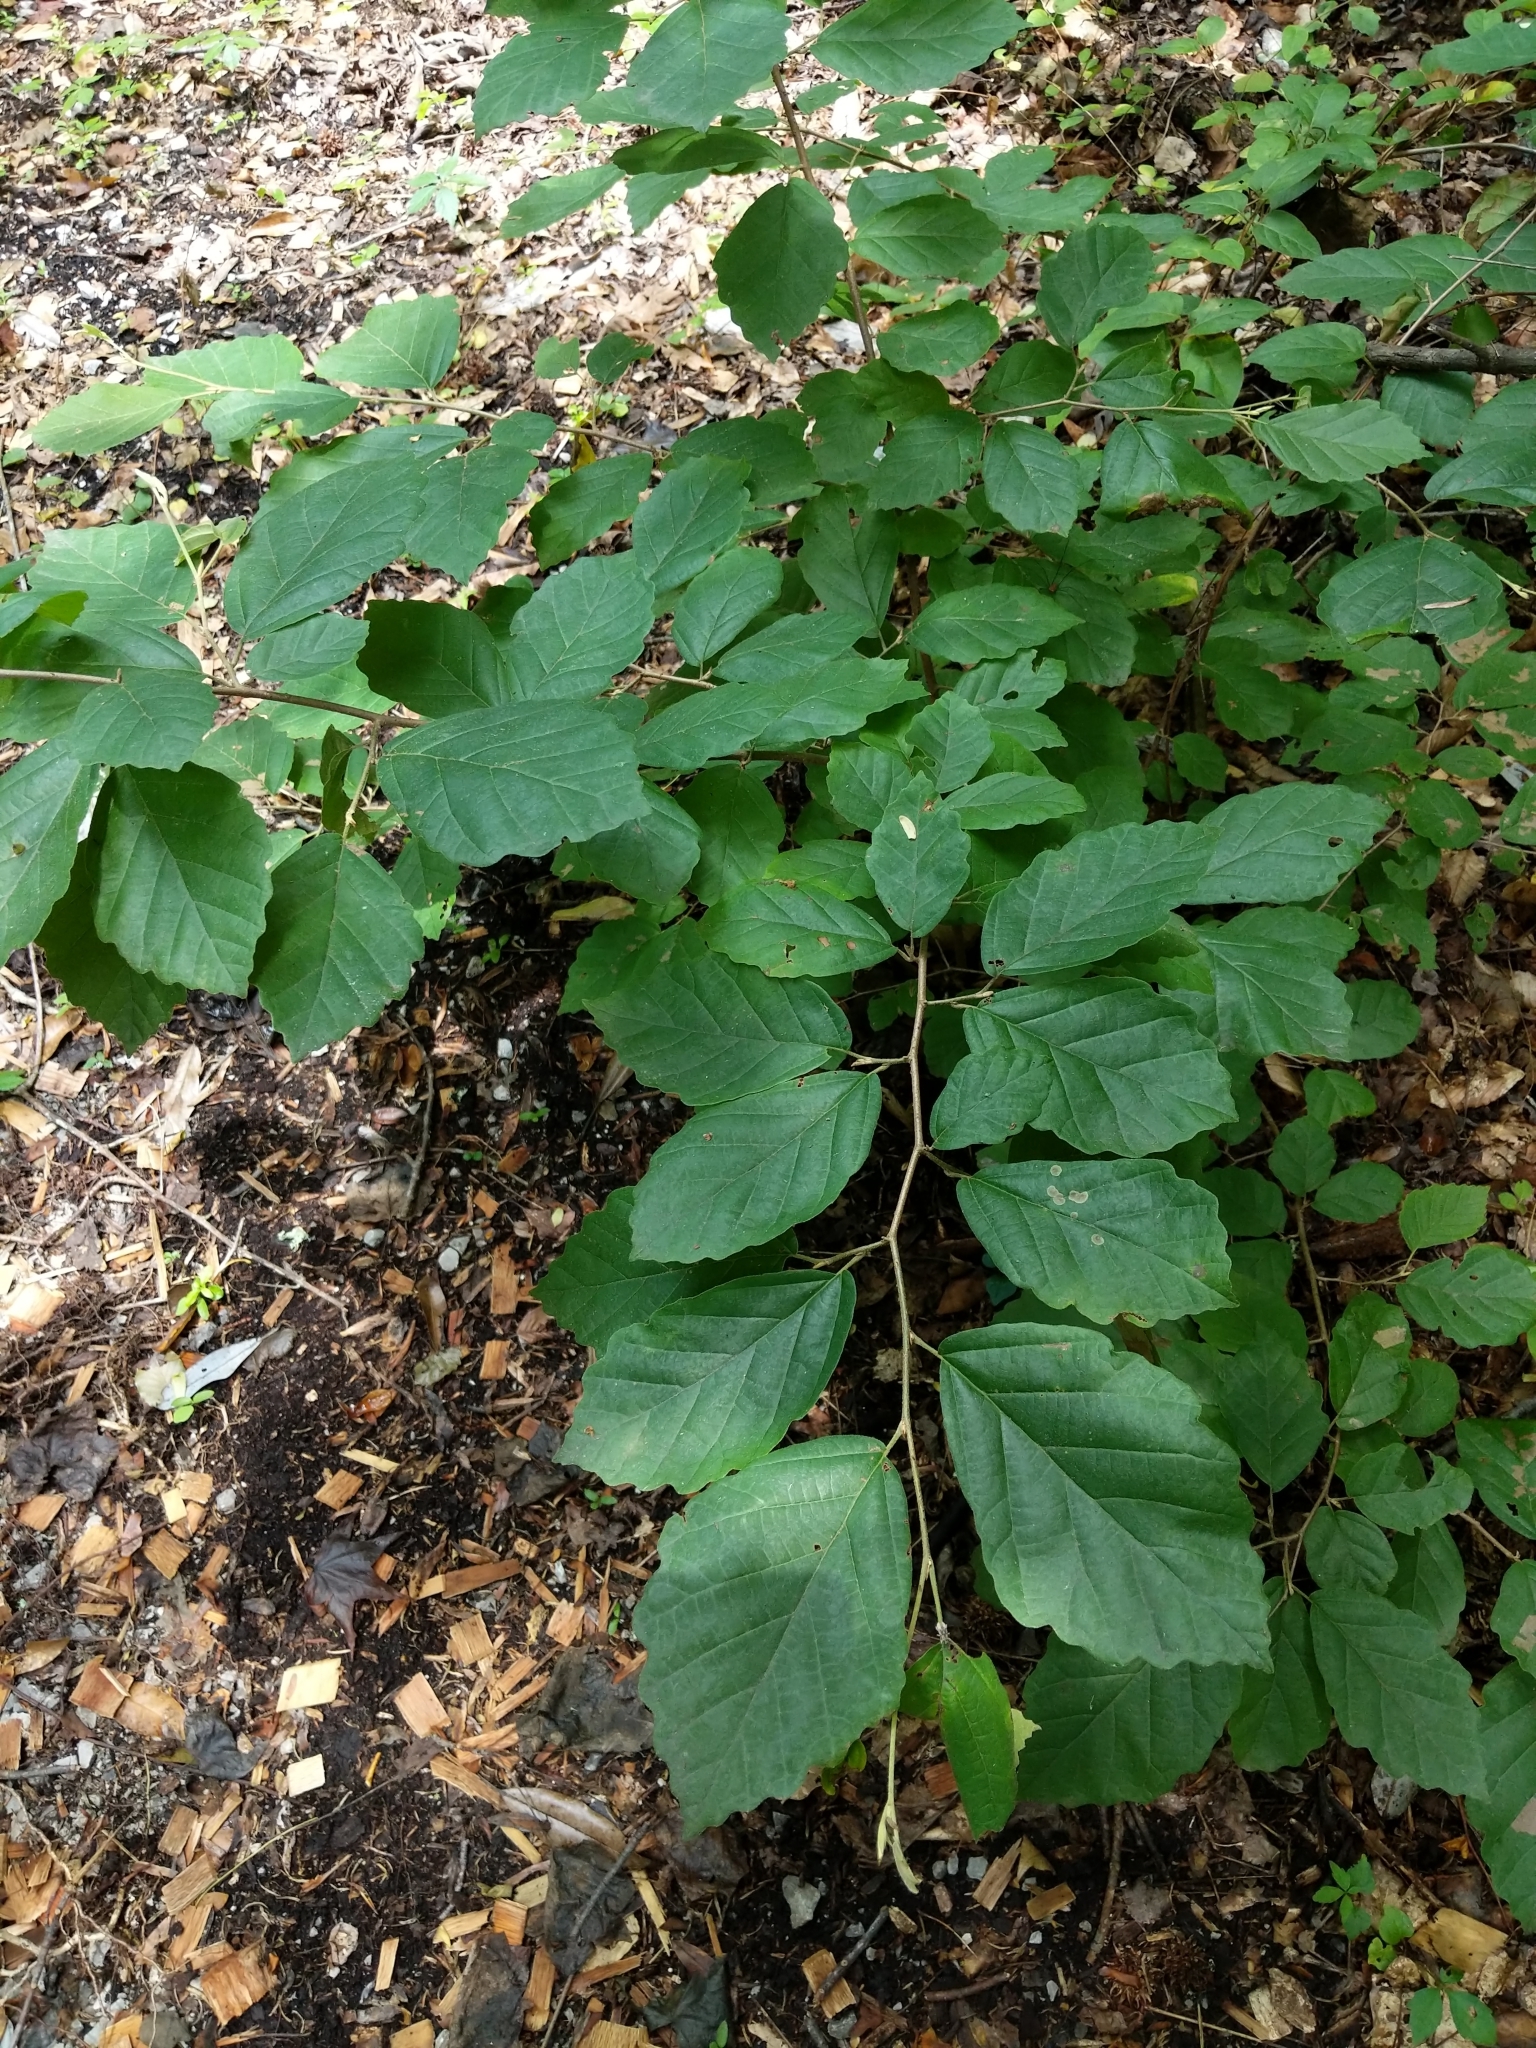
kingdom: Plantae
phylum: Tracheophyta
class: Magnoliopsida
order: Saxifragales
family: Hamamelidaceae
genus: Hamamelis
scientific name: Hamamelis virginiana
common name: Witch-hazel
